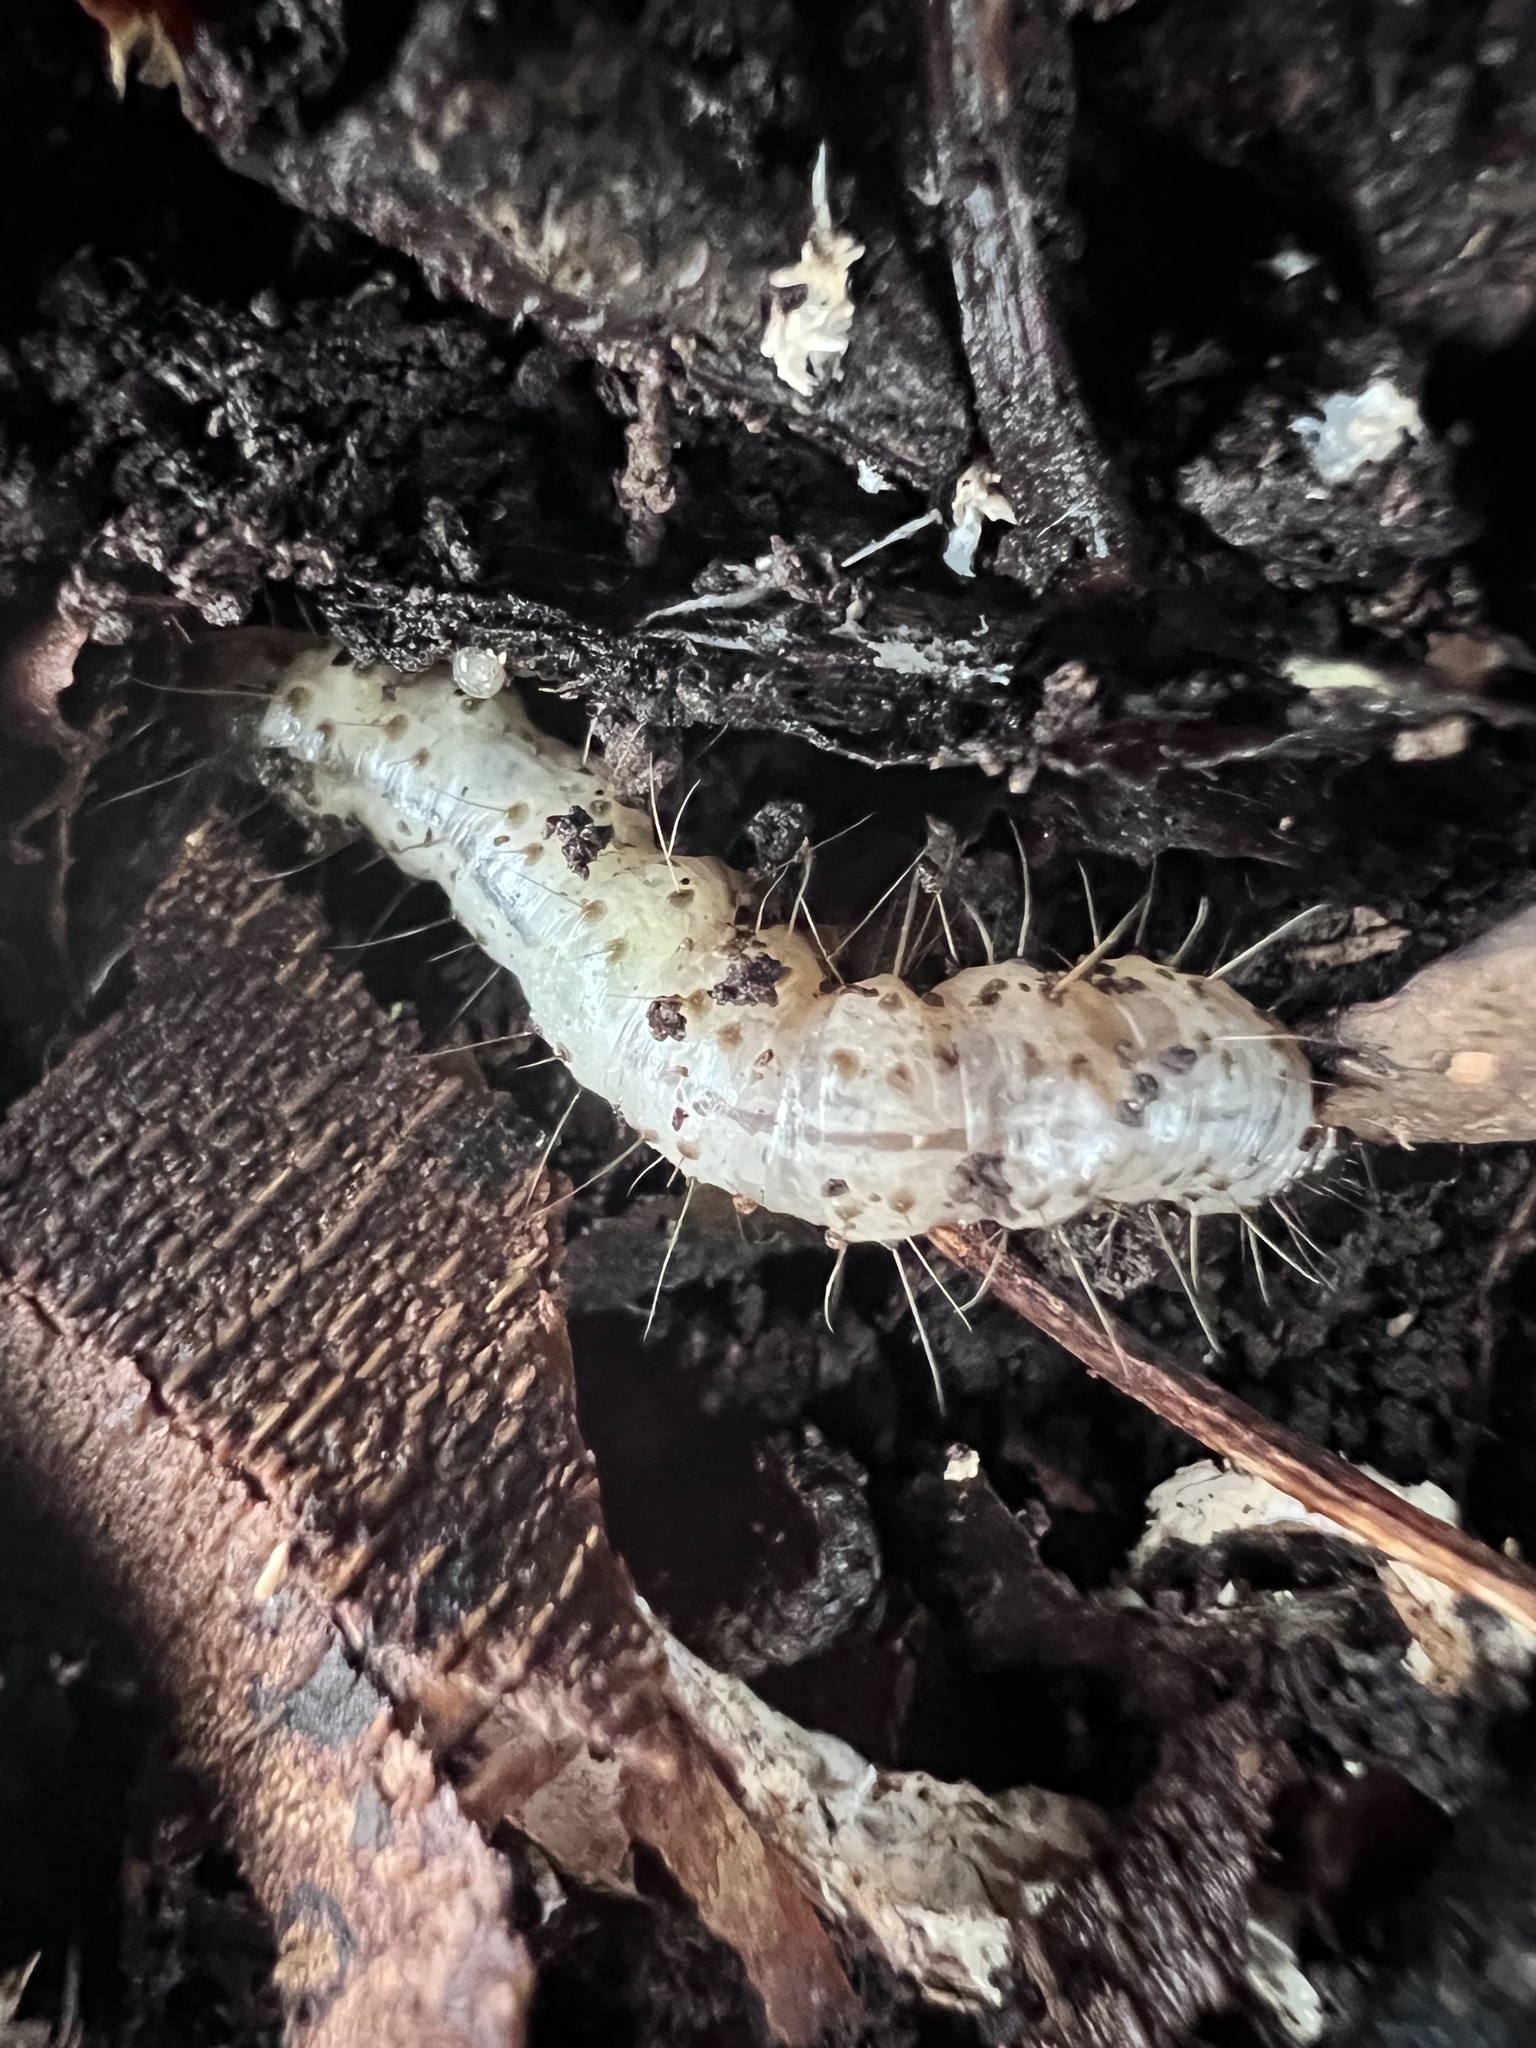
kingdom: Animalia
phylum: Arthropoda
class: Insecta
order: Lepidoptera
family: Erebidae
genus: Scolecocampa
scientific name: Scolecocampa liburna
